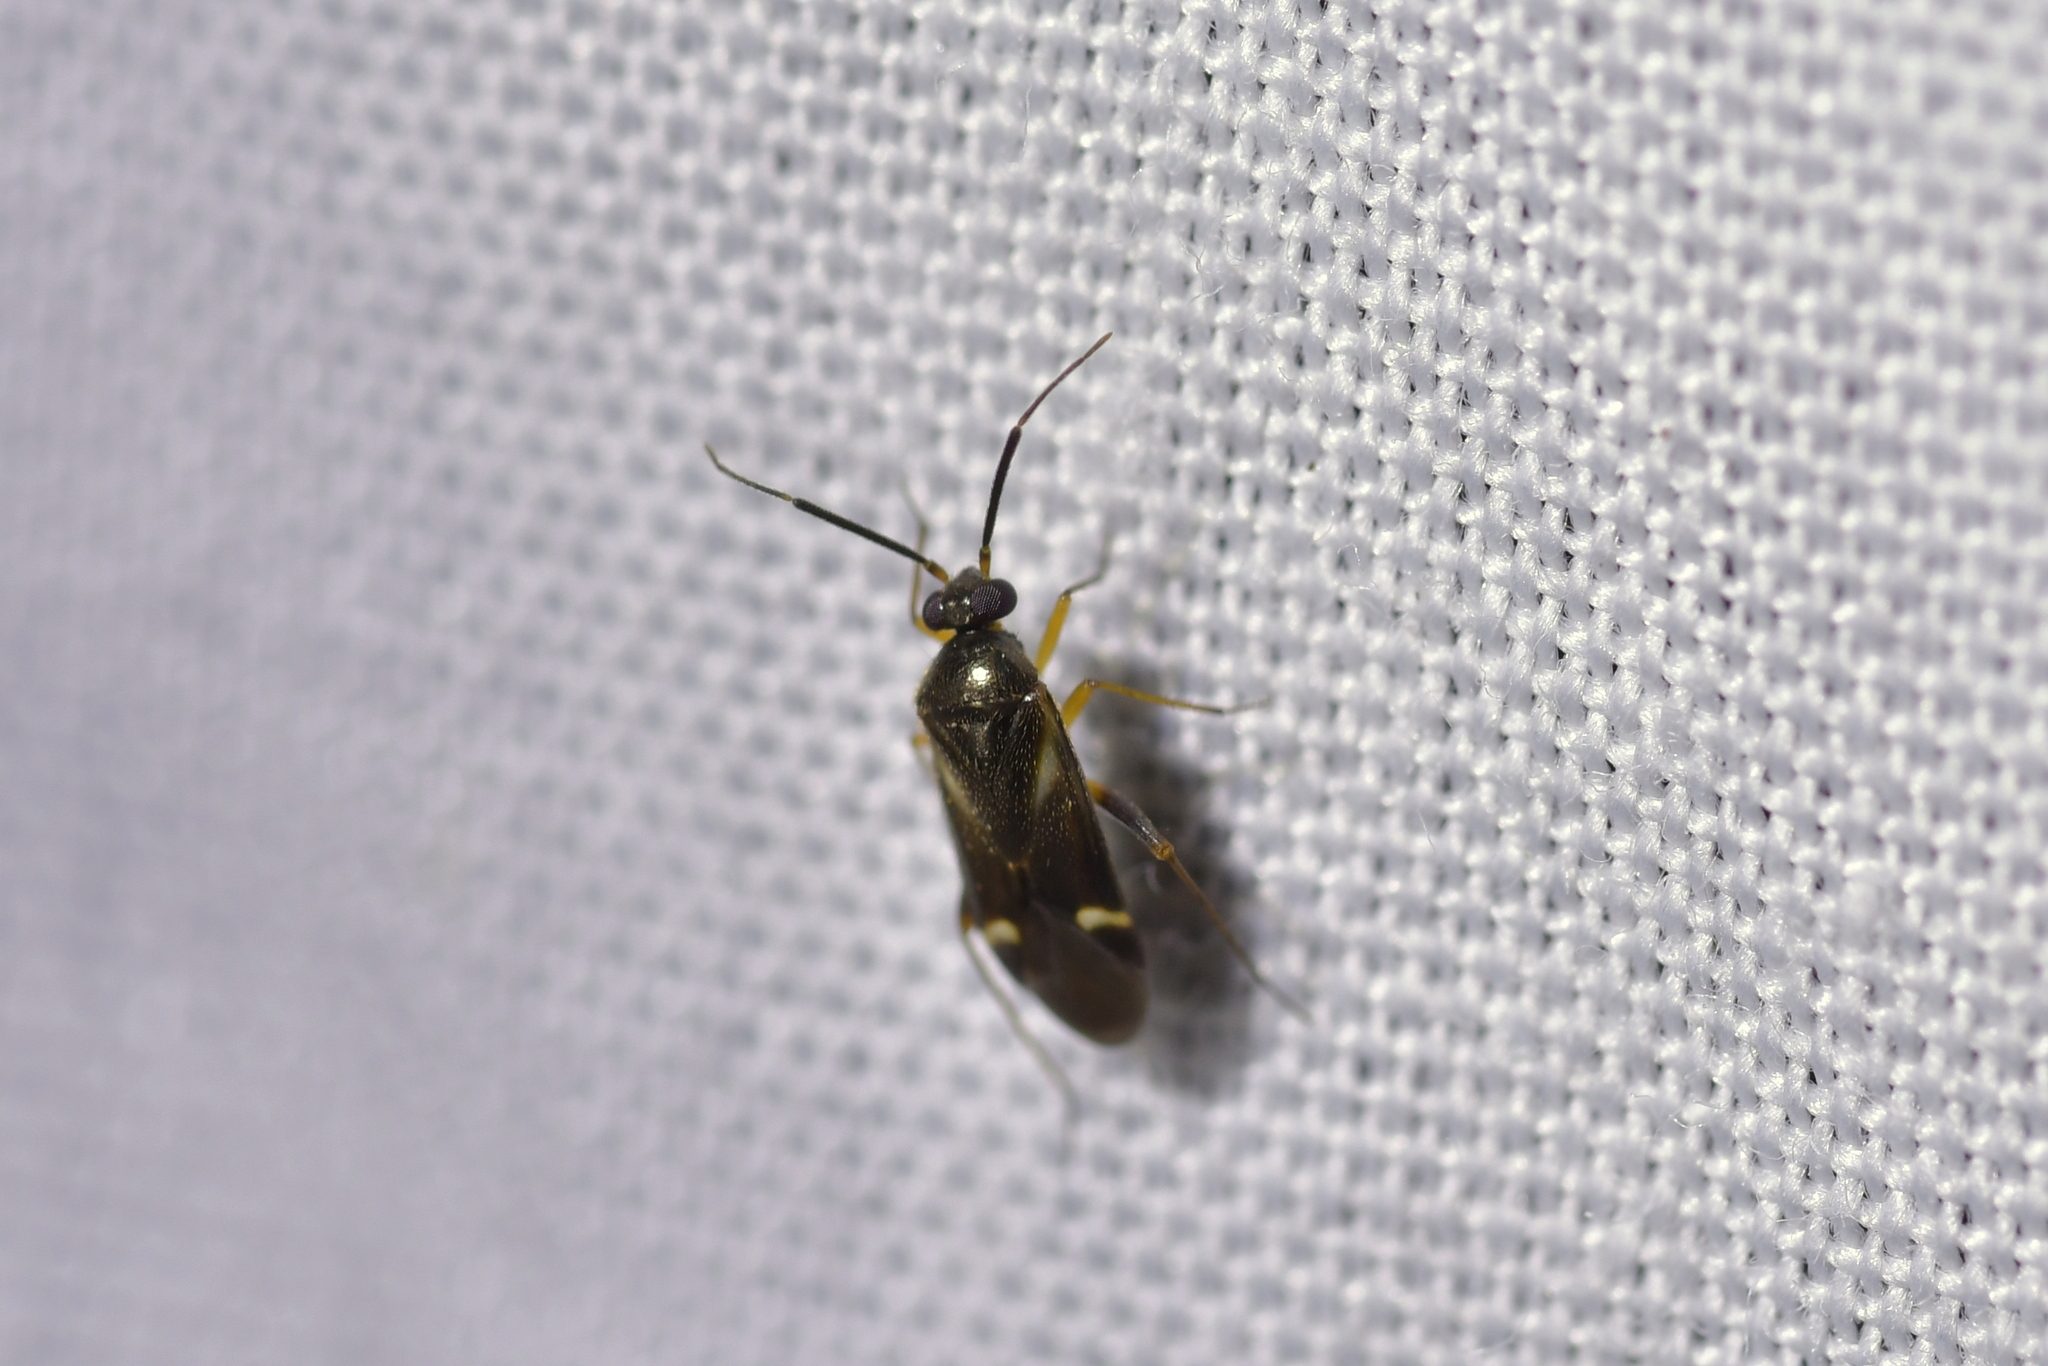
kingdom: Animalia
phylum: Arthropoda
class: Insecta
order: Hemiptera
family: Miridae
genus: Ausejanus
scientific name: Ausejanus albisignatus
